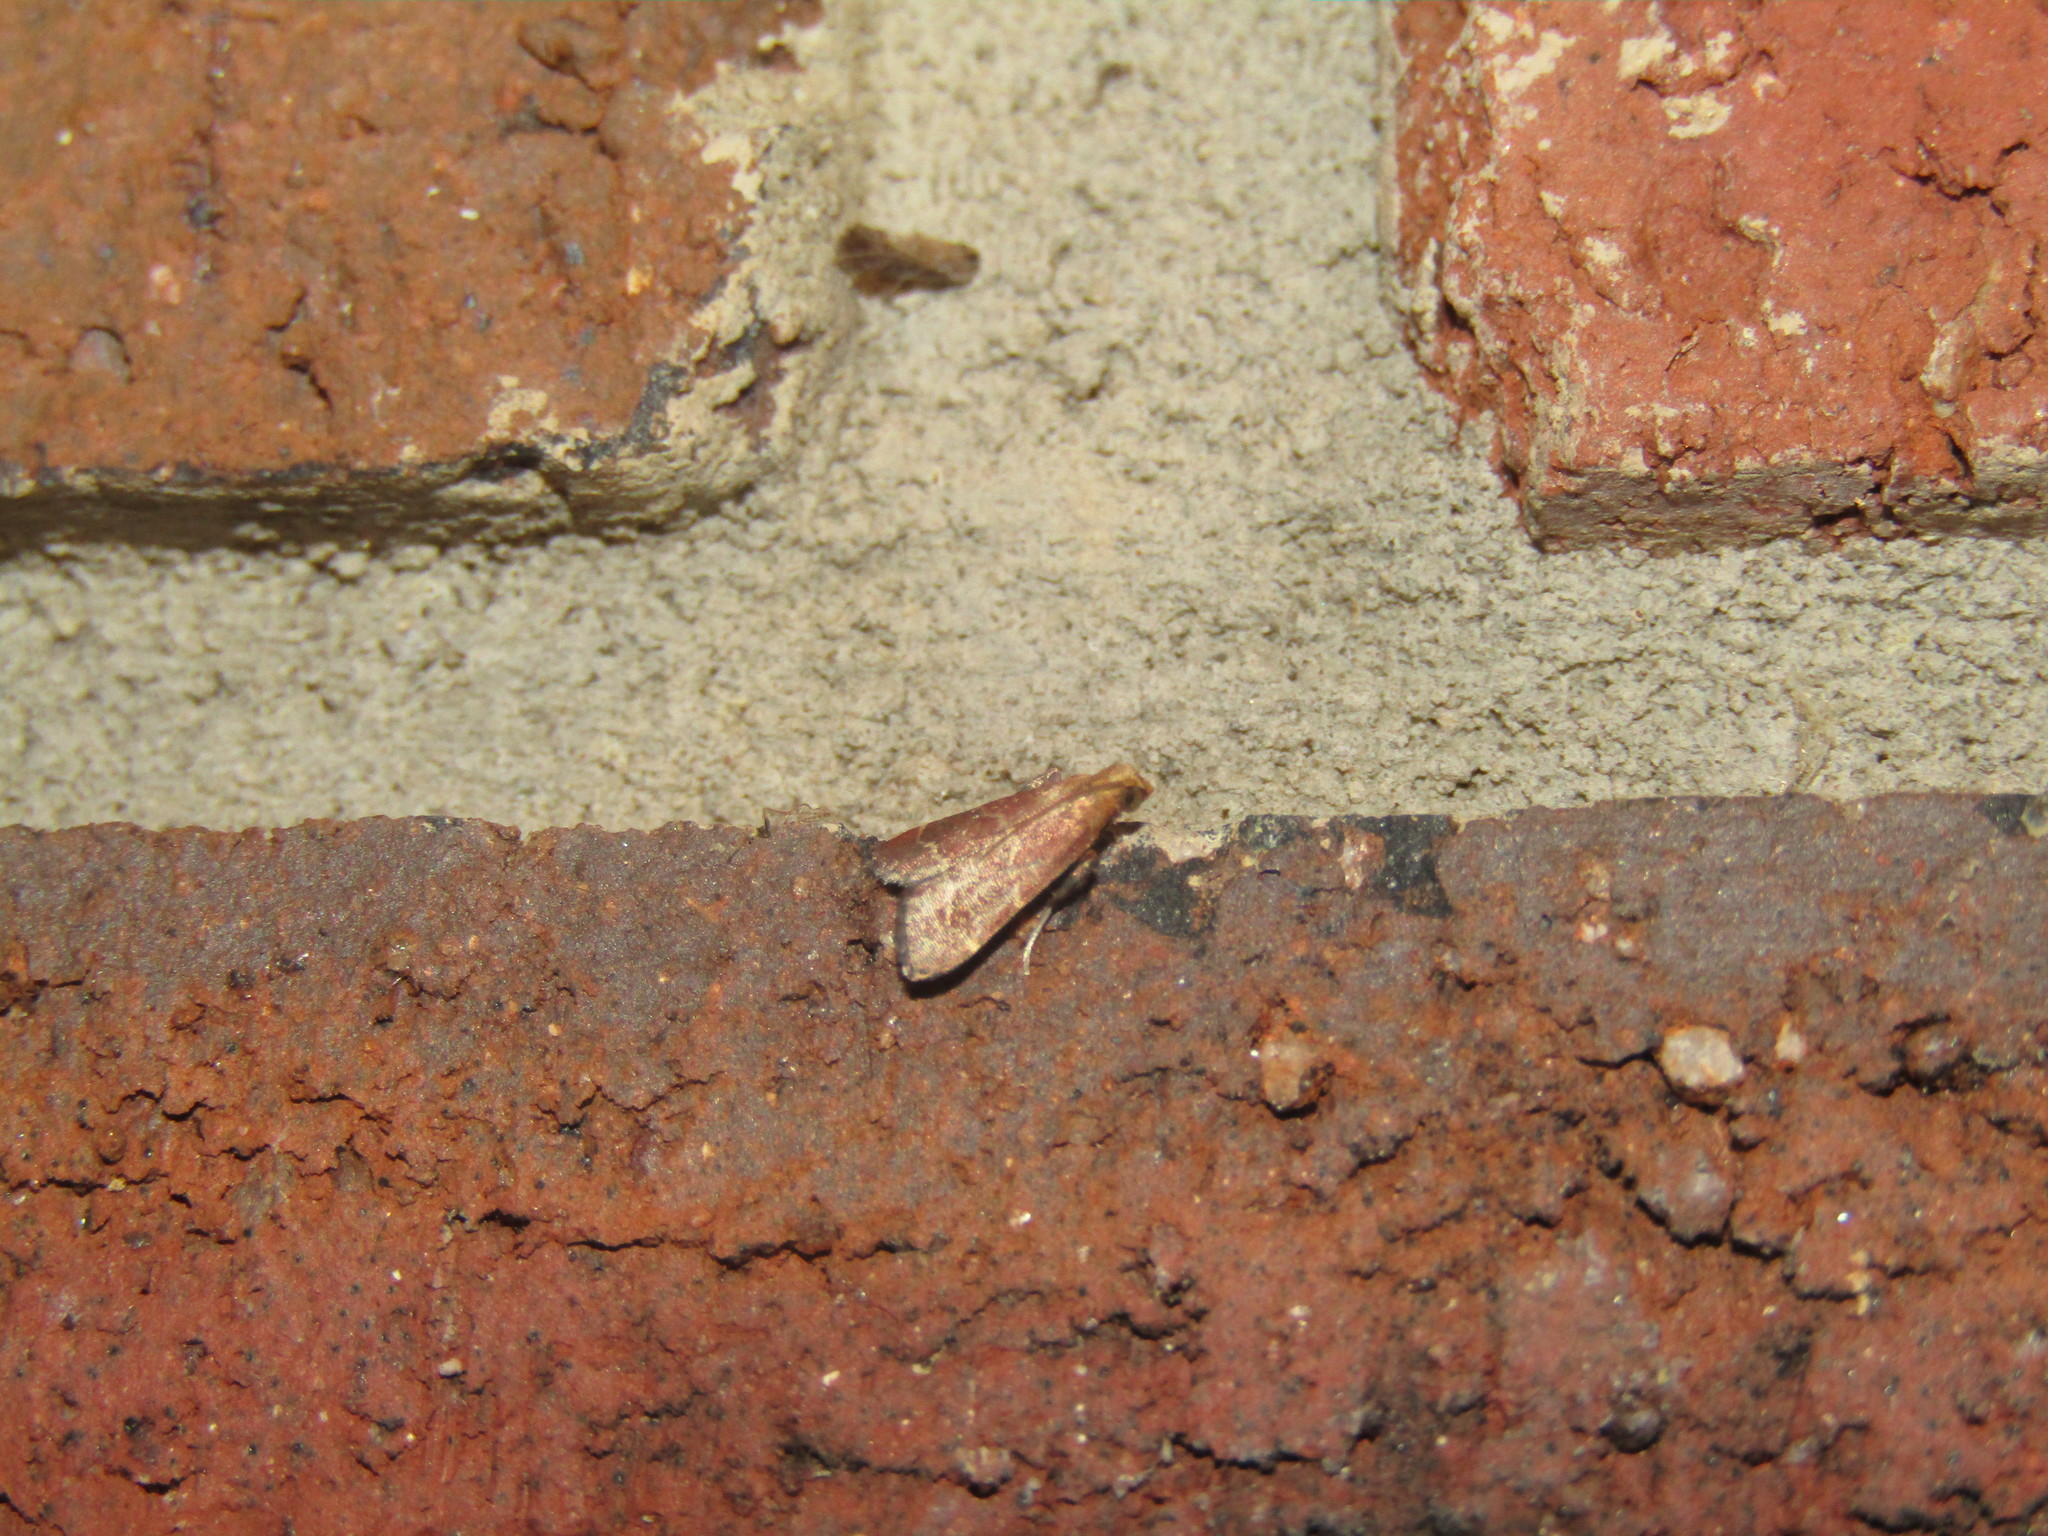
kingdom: Animalia
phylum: Arthropoda
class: Insecta
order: Lepidoptera
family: Pyralidae
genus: Arta
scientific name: Arta statalis
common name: Posturing arta moth
